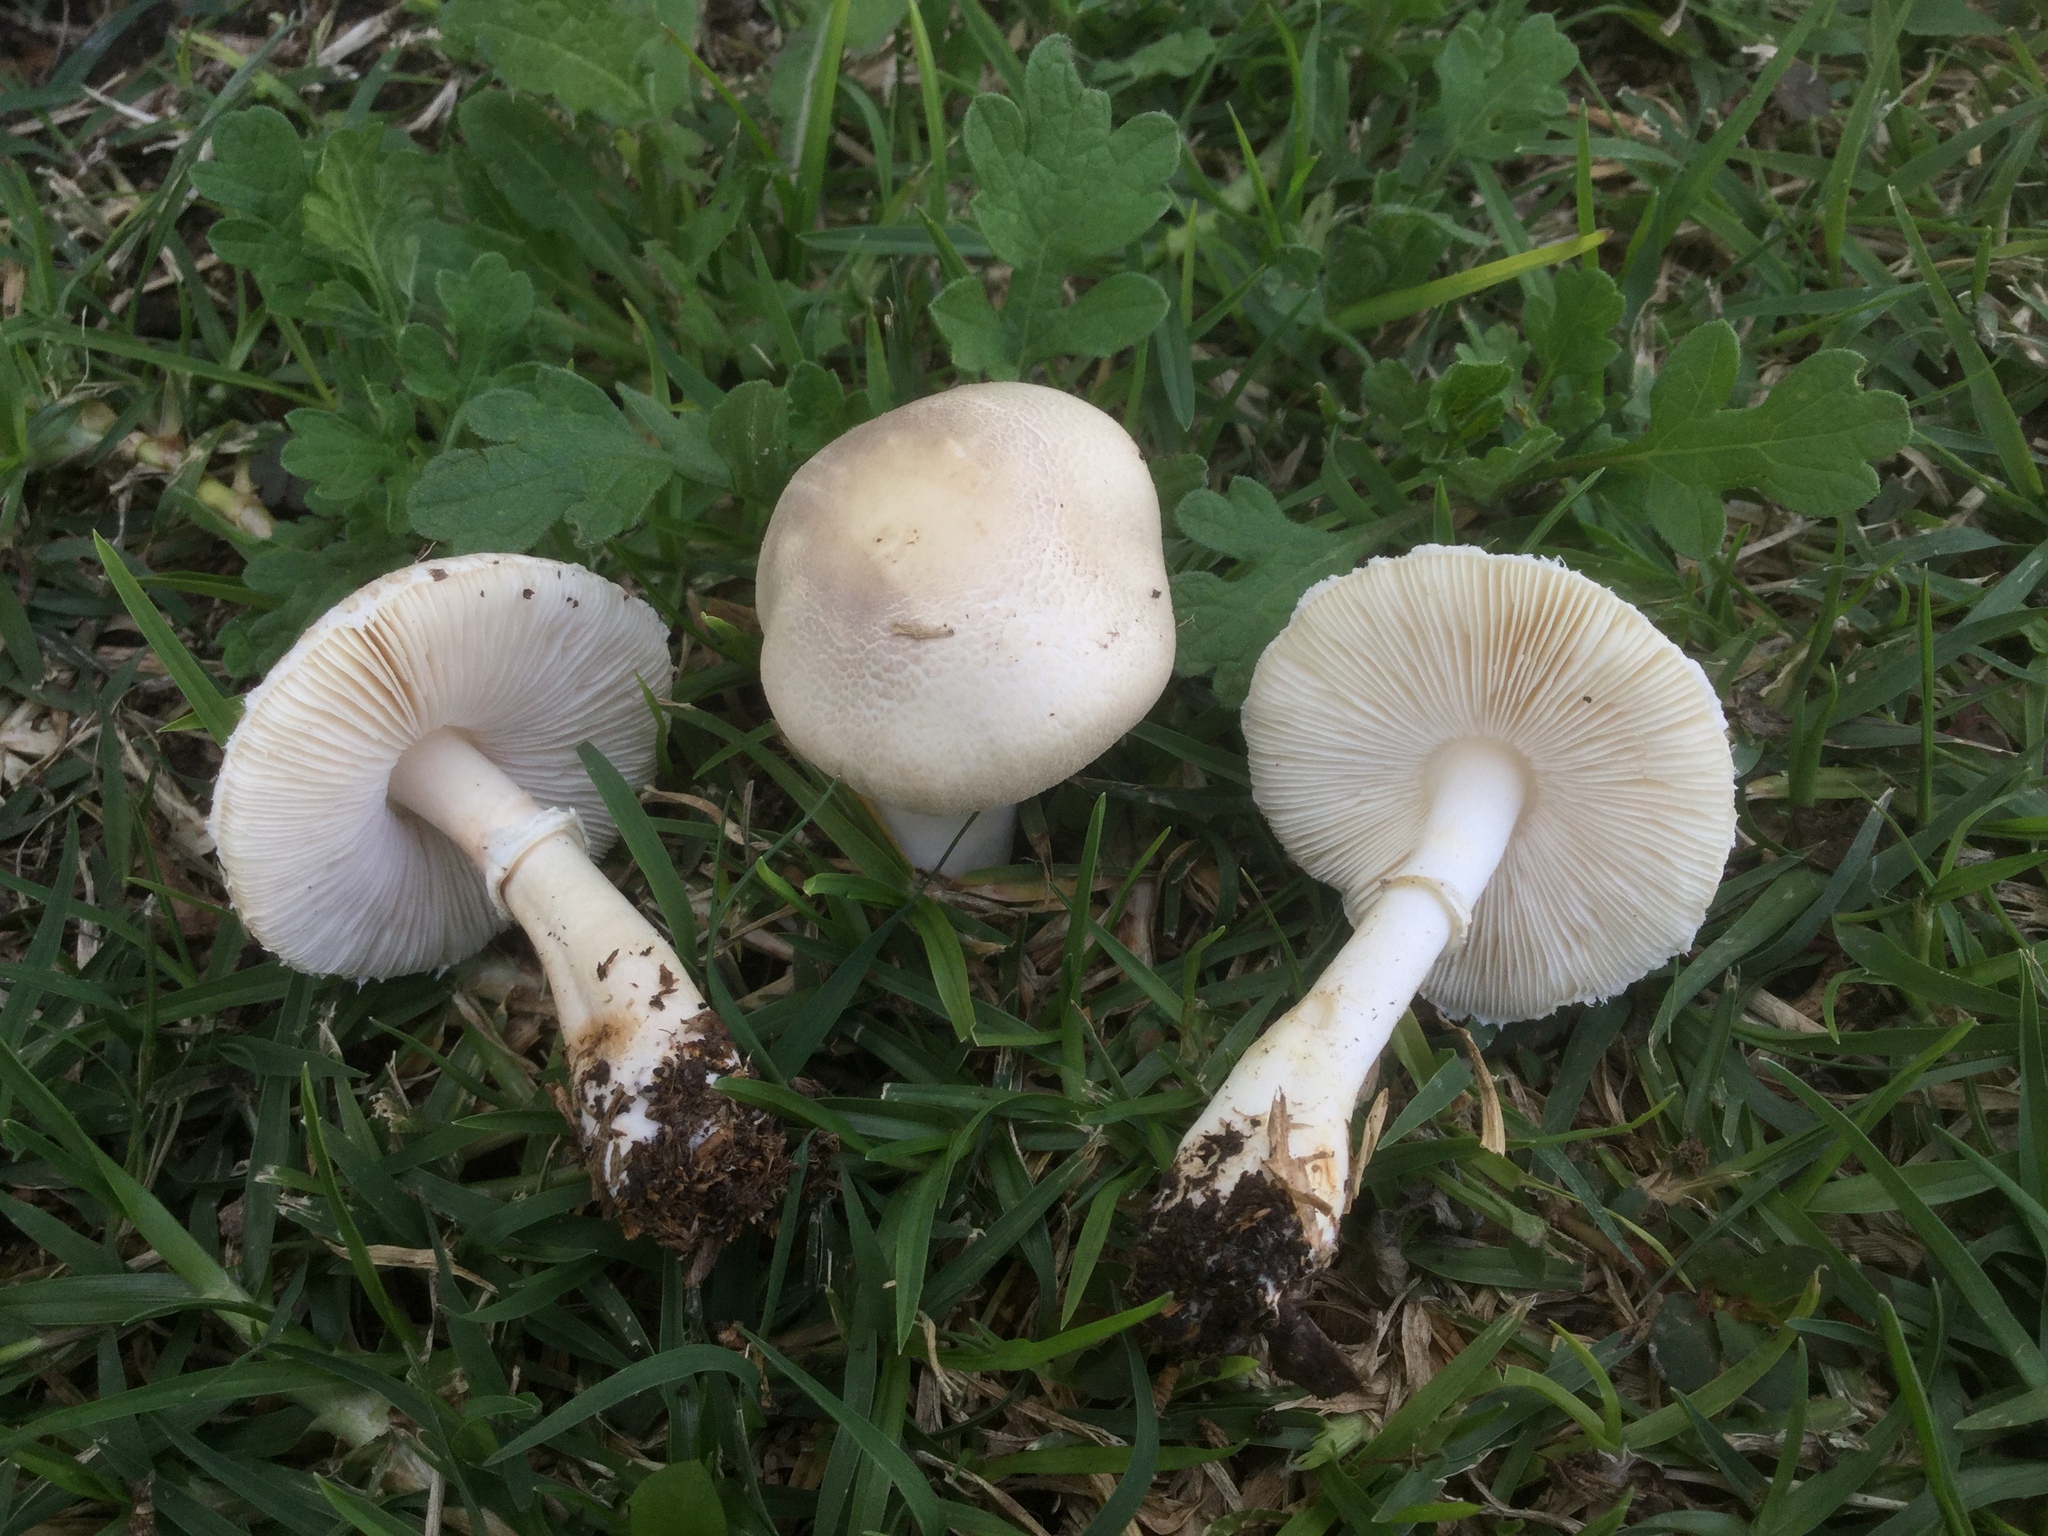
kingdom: Fungi
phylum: Basidiomycota
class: Agaricomycetes
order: Agaricales
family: Agaricaceae
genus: Leucoagaricus
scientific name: Leucoagaricus leucothites
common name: White dapperling
